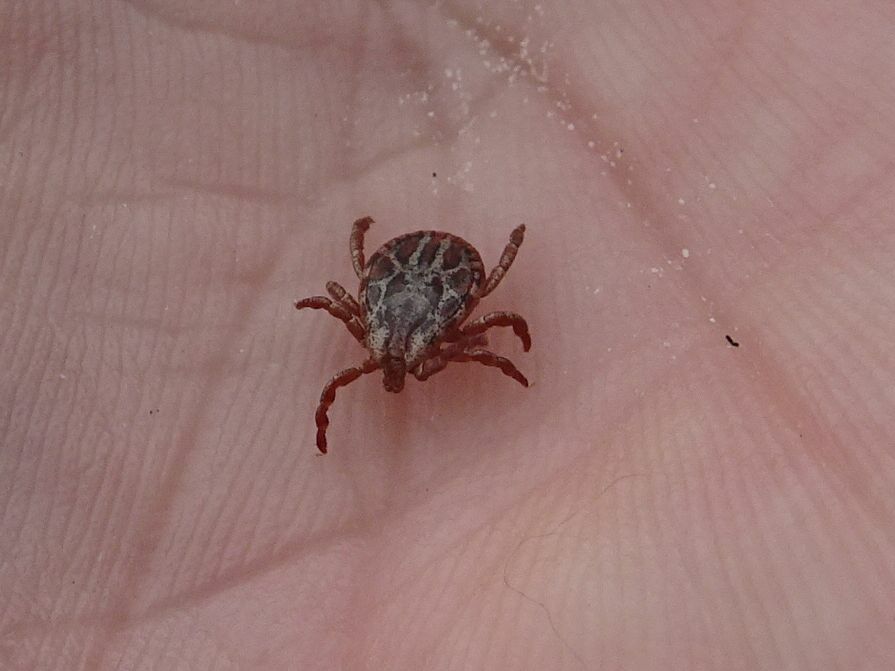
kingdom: Animalia
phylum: Arthropoda
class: Arachnida
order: Ixodida
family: Ixodidae
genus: Dermacentor
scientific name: Dermacentor marginatus
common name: Ornate sheep tick
